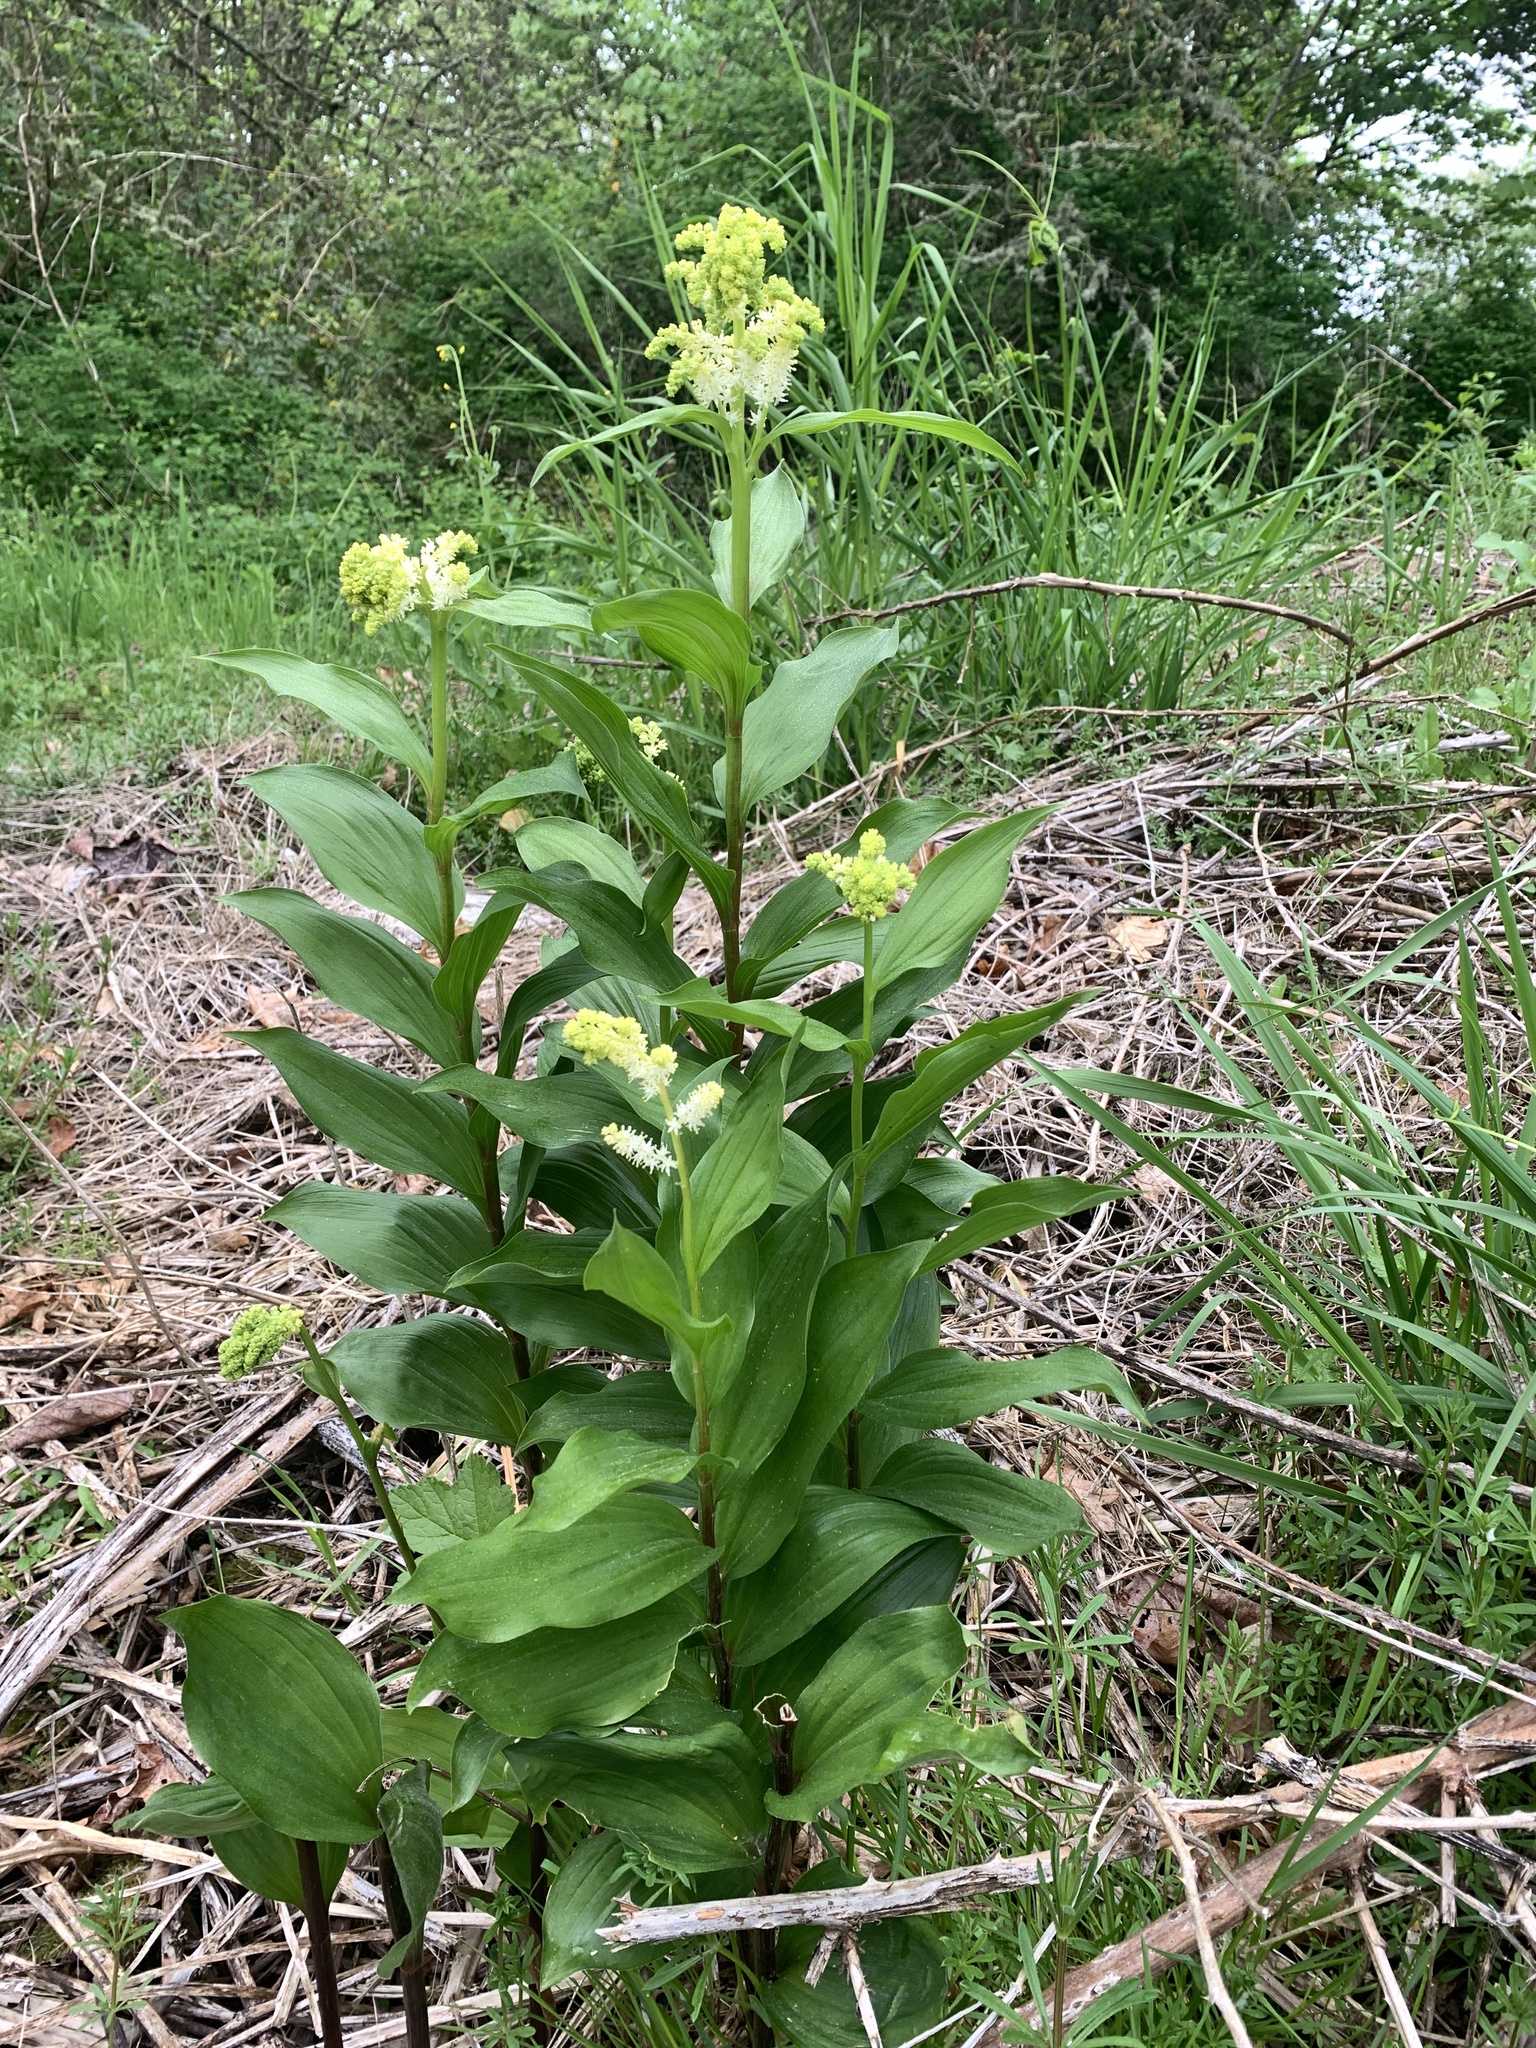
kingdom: Plantae
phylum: Tracheophyta
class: Liliopsida
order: Asparagales
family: Asparagaceae
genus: Maianthemum
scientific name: Maianthemum racemosum
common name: False spikenard
